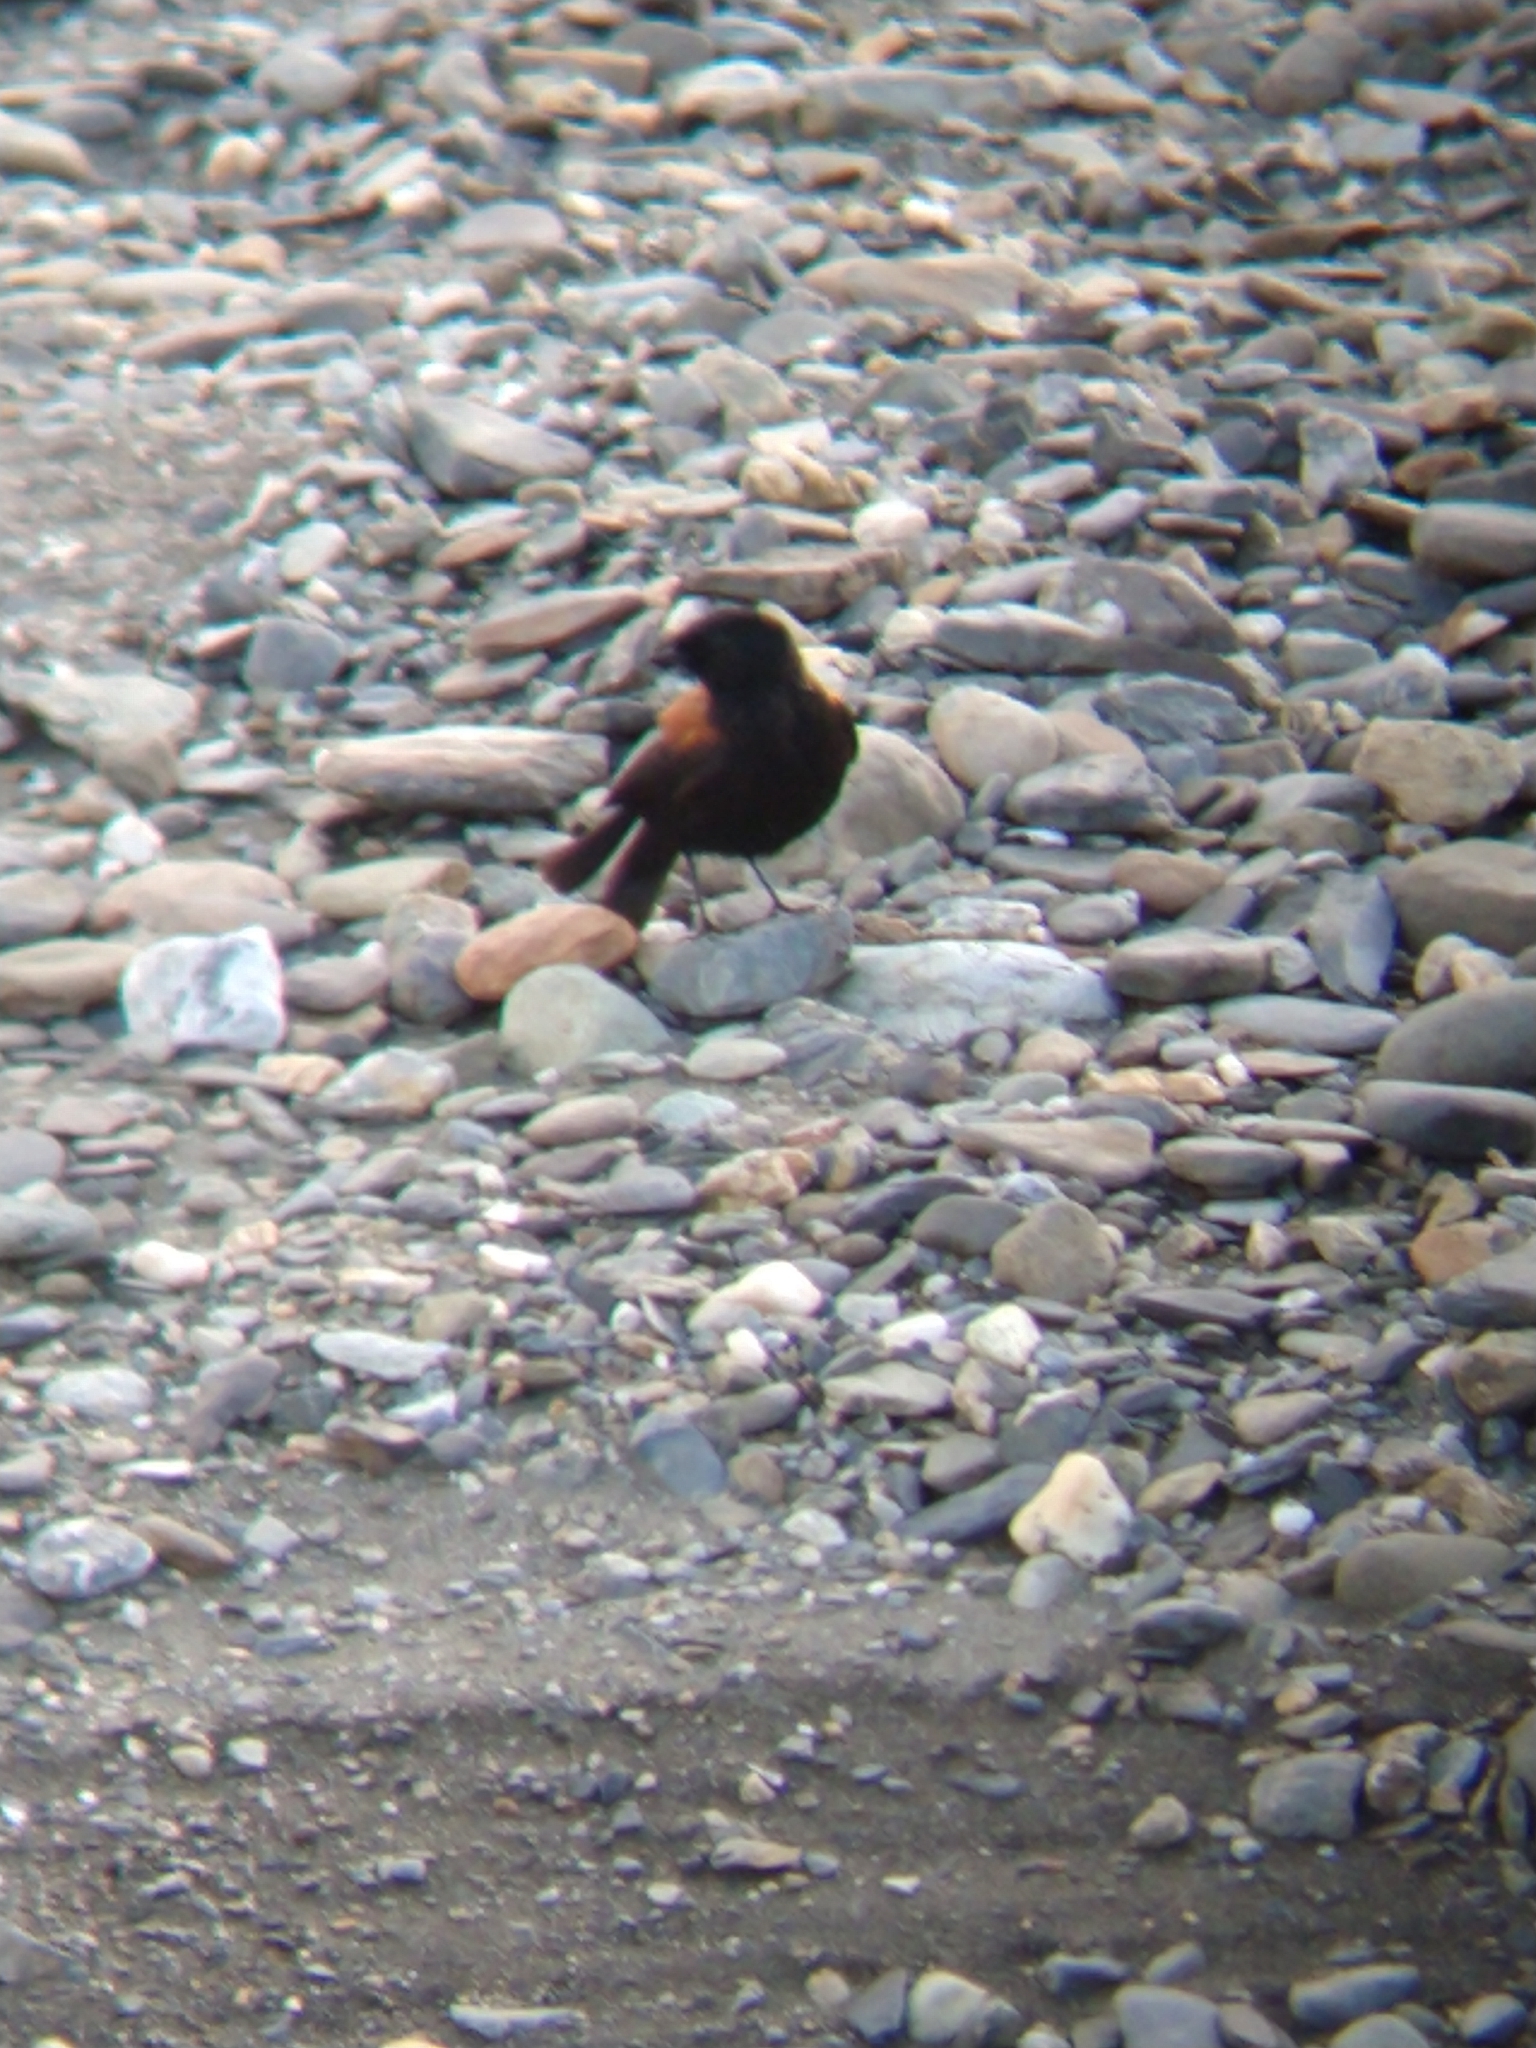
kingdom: Animalia
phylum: Chordata
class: Aves
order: Passeriformes
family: Tyrannidae
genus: Lessonia
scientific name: Lessonia rufa
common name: Austral negrito
